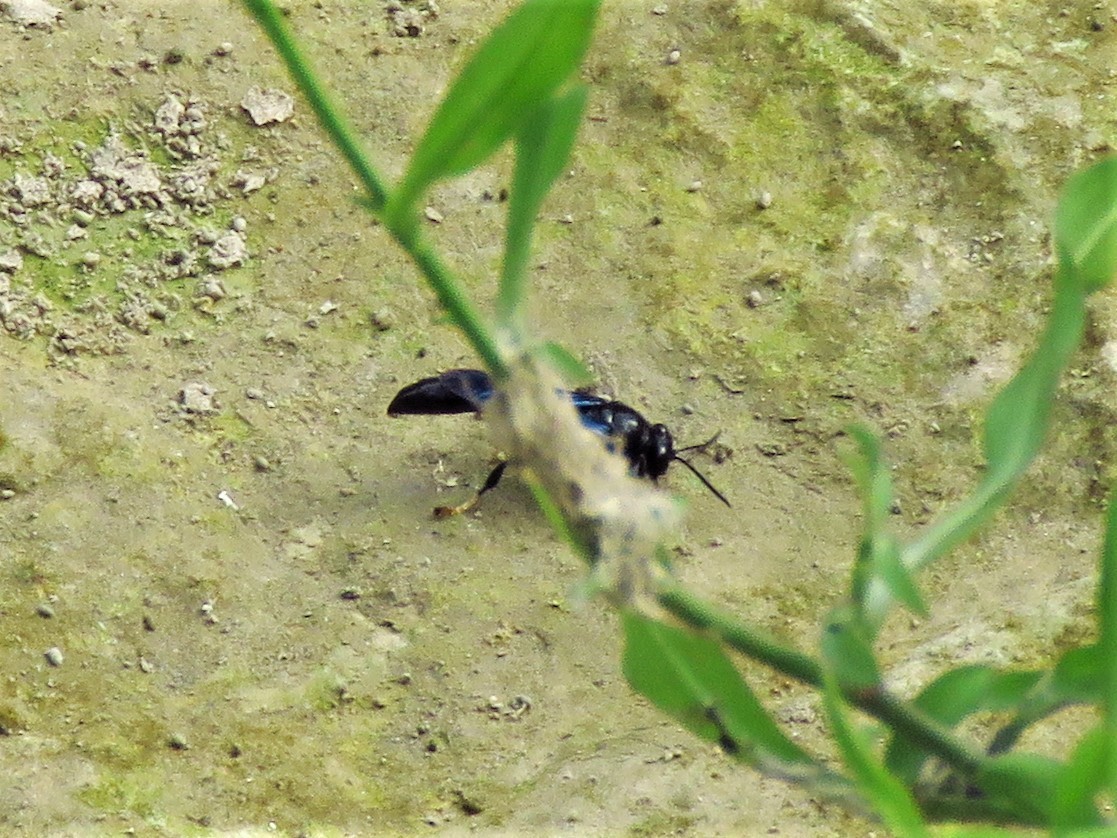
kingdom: Animalia
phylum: Arthropoda
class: Insecta
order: Hymenoptera
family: Crabronidae
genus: Trypoxylon
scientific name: Trypoxylon politum
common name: Organ-pipe mud-dauber wasp
